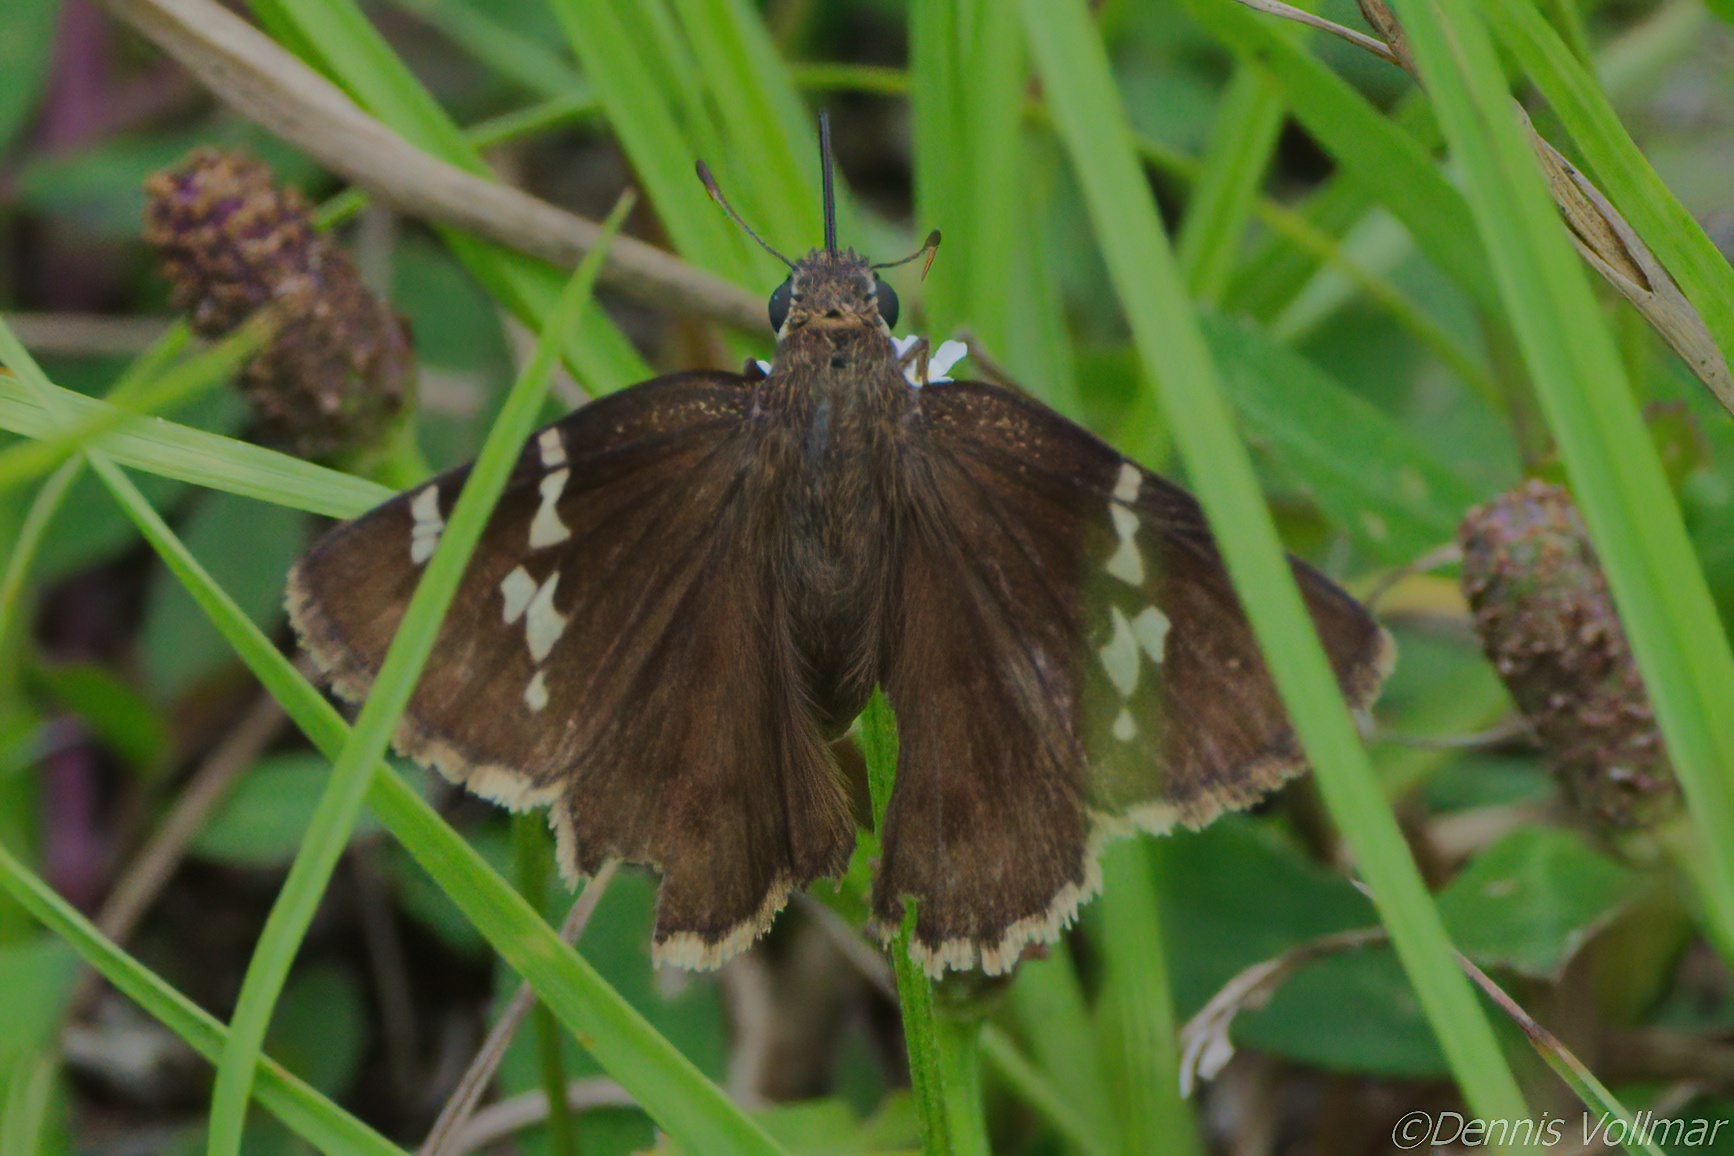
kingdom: Animalia
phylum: Arthropoda
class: Insecta
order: Lepidoptera
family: Hesperiidae
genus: Thorybes
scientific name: Thorybes daunus
